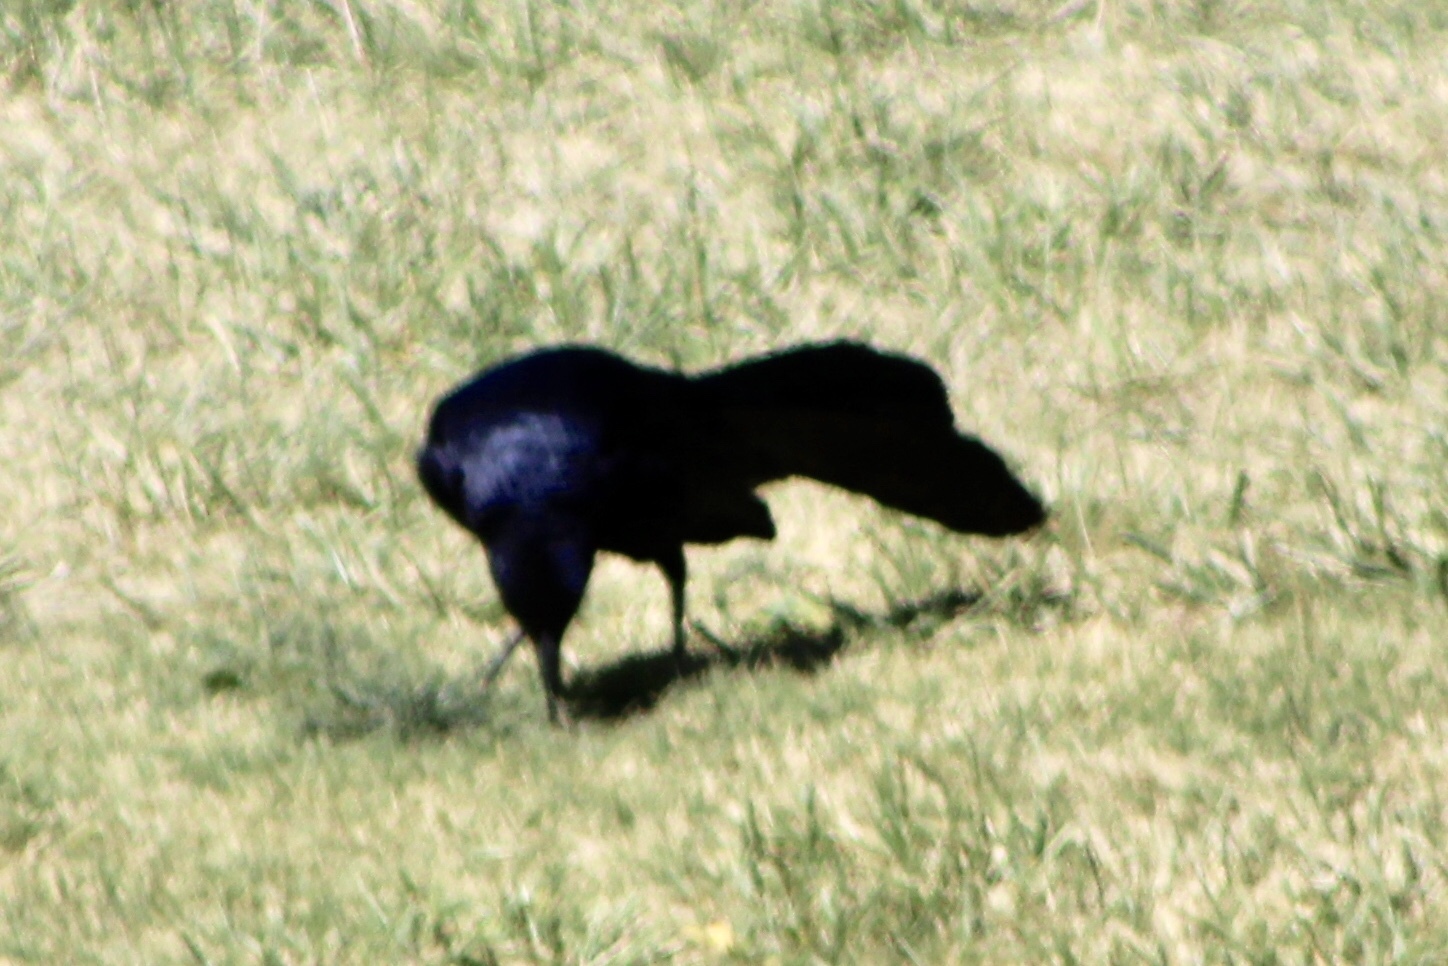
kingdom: Animalia
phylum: Chordata
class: Aves
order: Passeriformes
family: Icteridae
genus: Quiscalus
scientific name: Quiscalus mexicanus
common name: Great-tailed grackle
